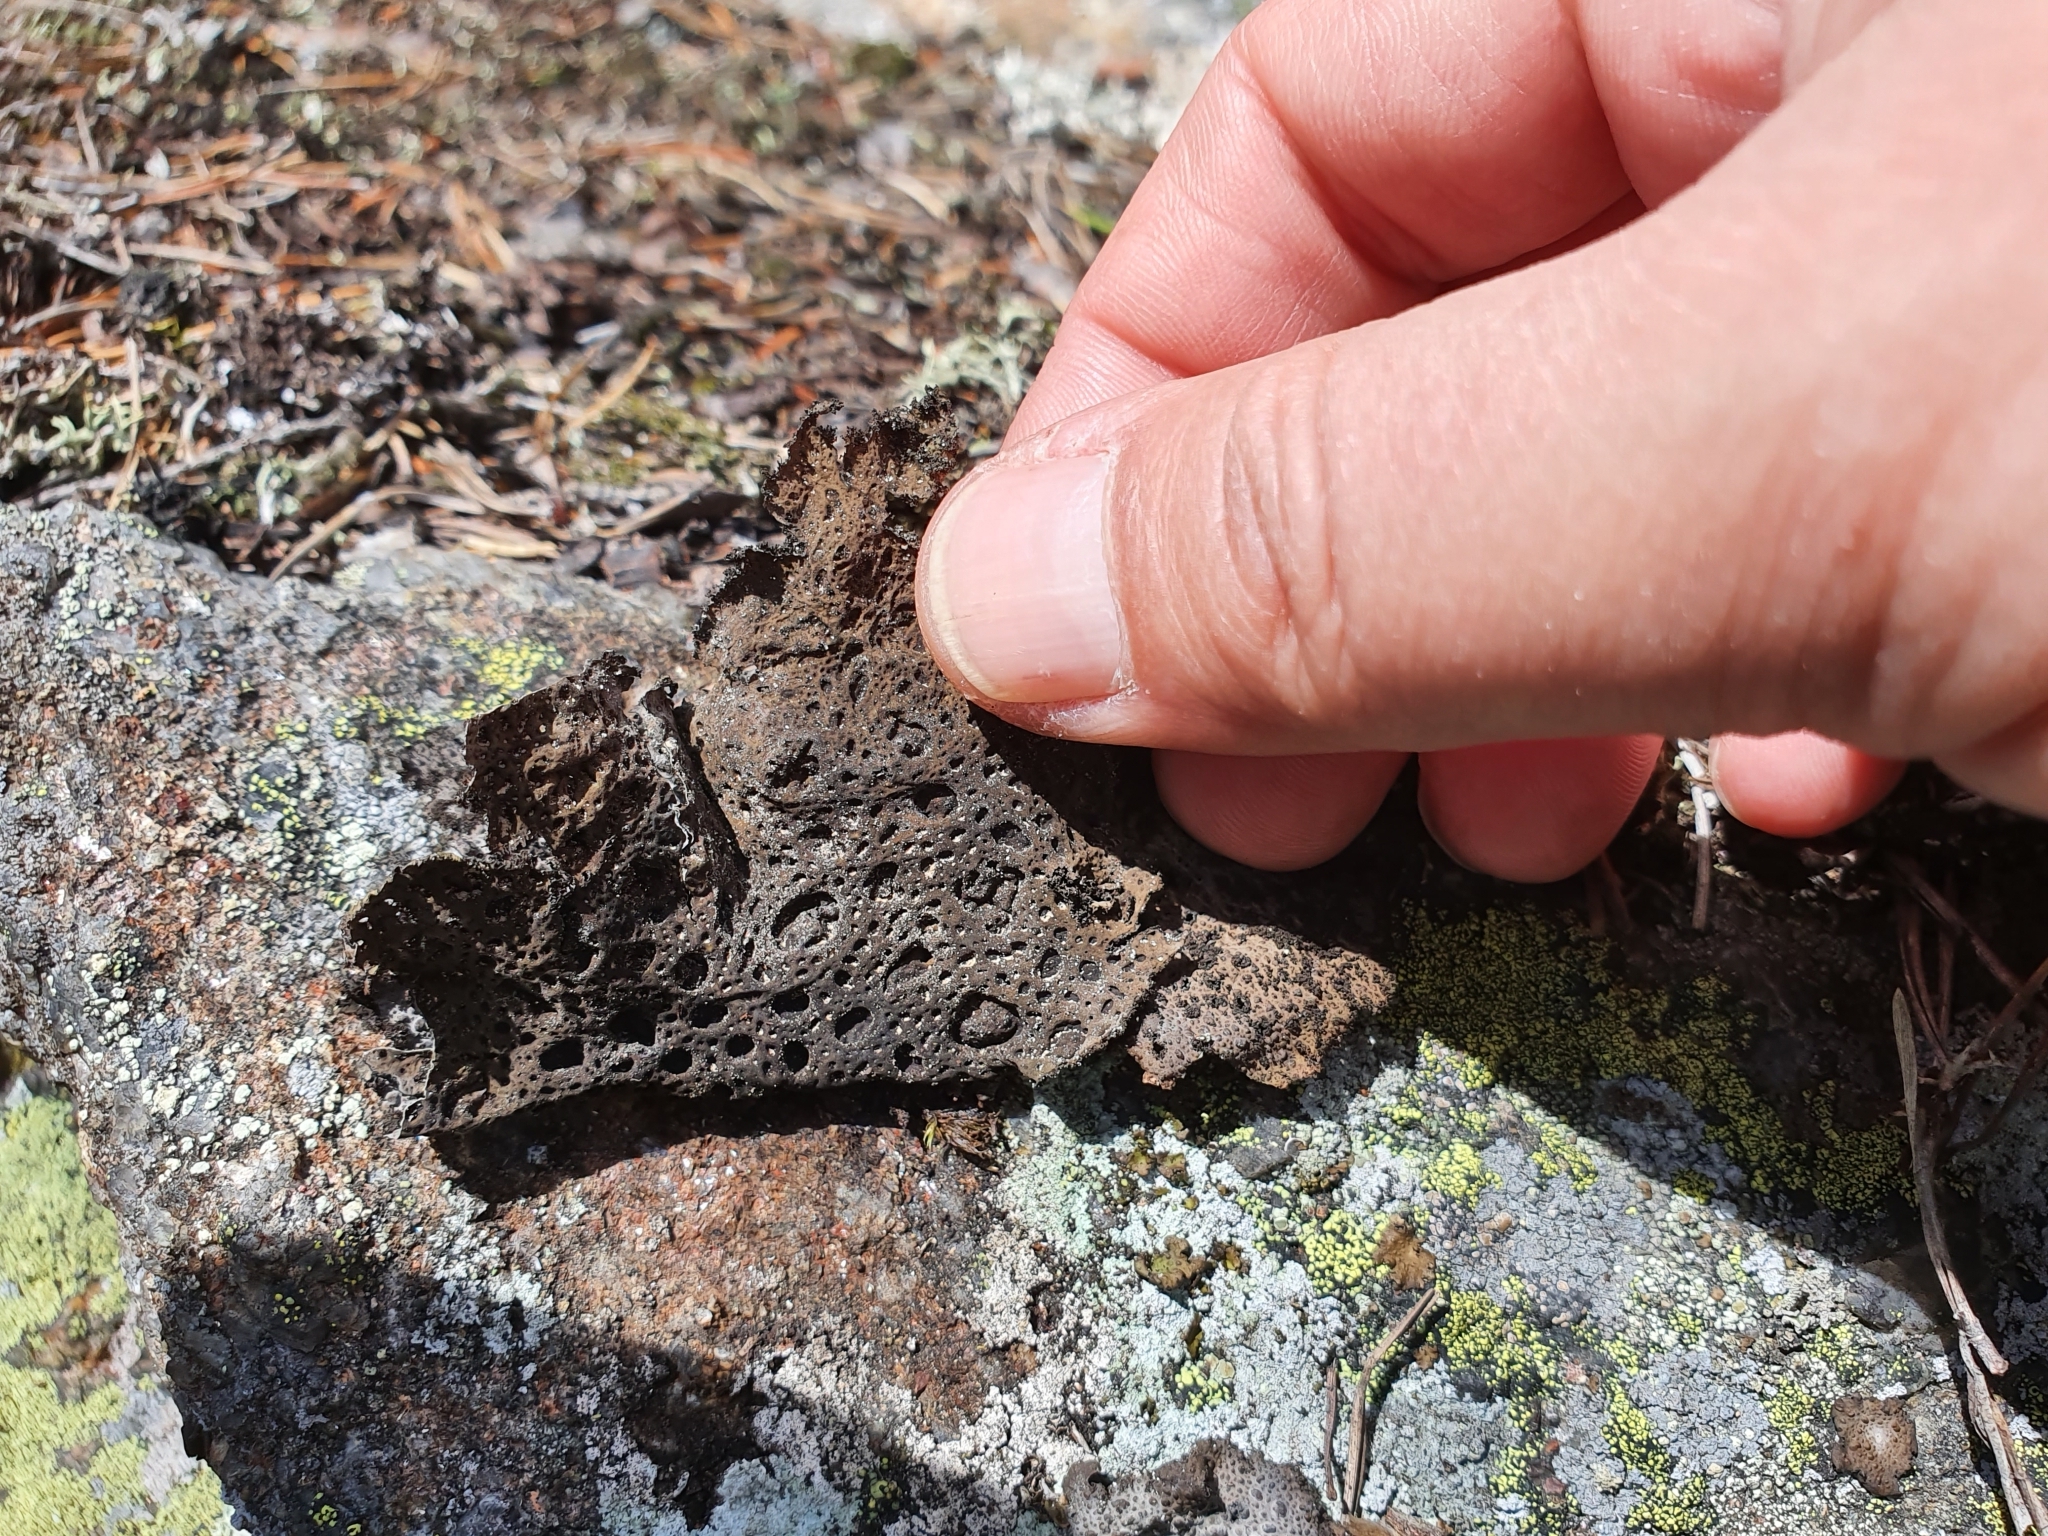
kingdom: Fungi
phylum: Ascomycota
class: Lecanoromycetes
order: Umbilicariales
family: Umbilicariaceae
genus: Lasallia
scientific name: Lasallia pustulata
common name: Blistered toadskin lichen
